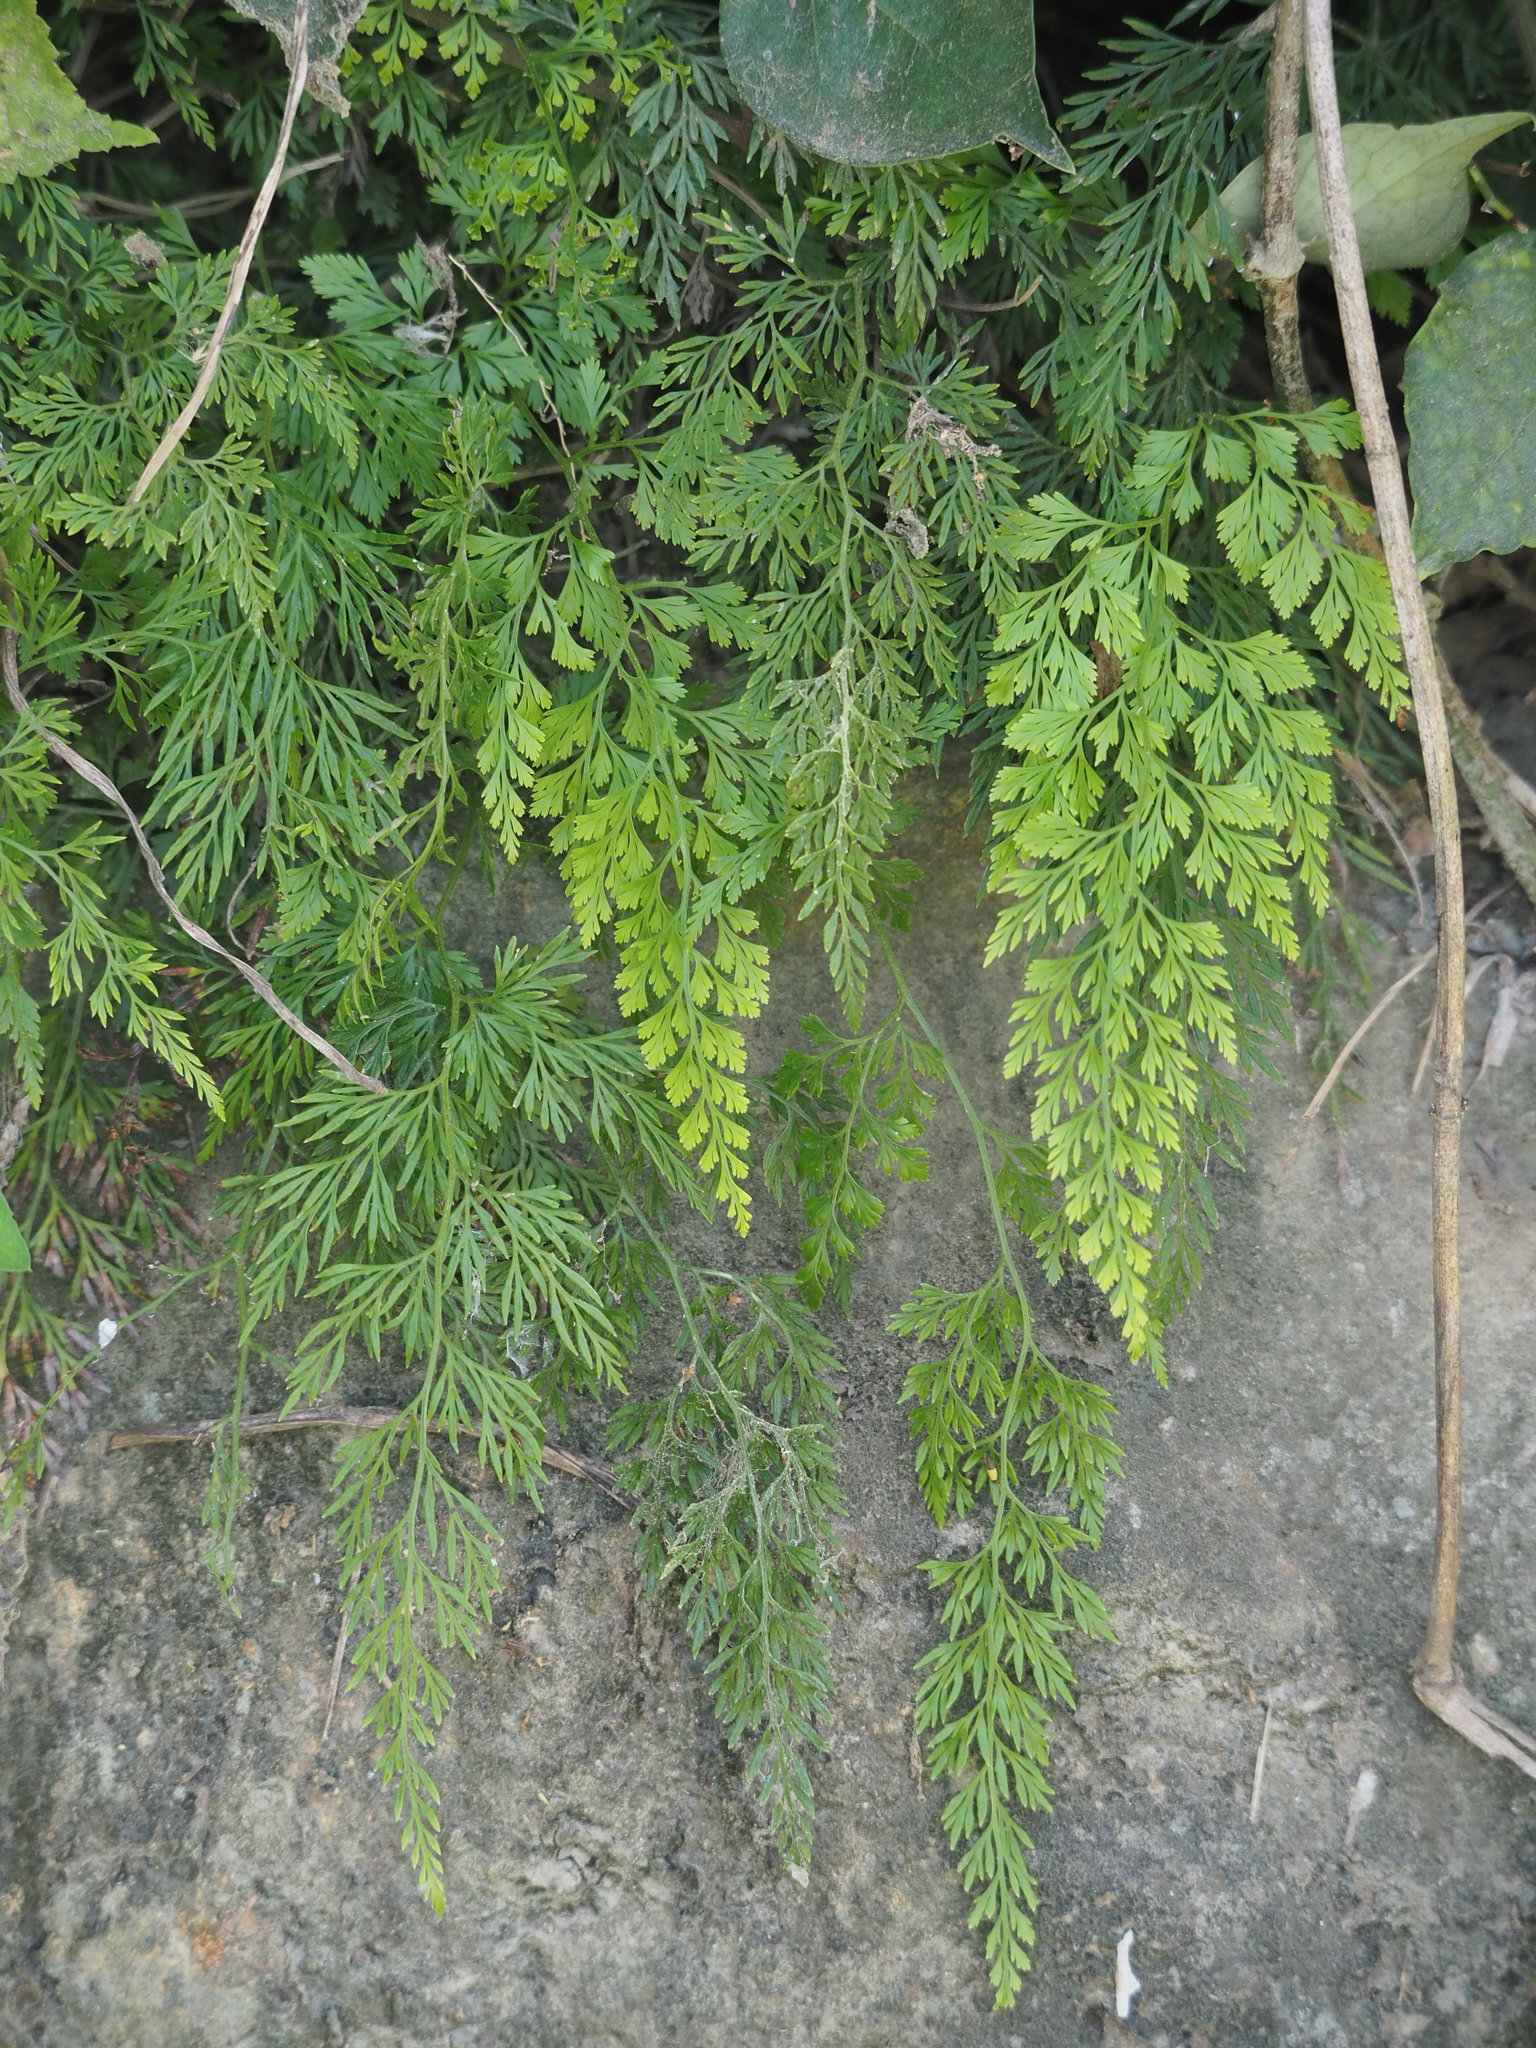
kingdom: Plantae
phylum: Tracheophyta
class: Polypodiopsida
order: Polypodiales
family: Pteridaceae
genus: Onychium
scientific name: Onychium japonicum
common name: Carrot fern
